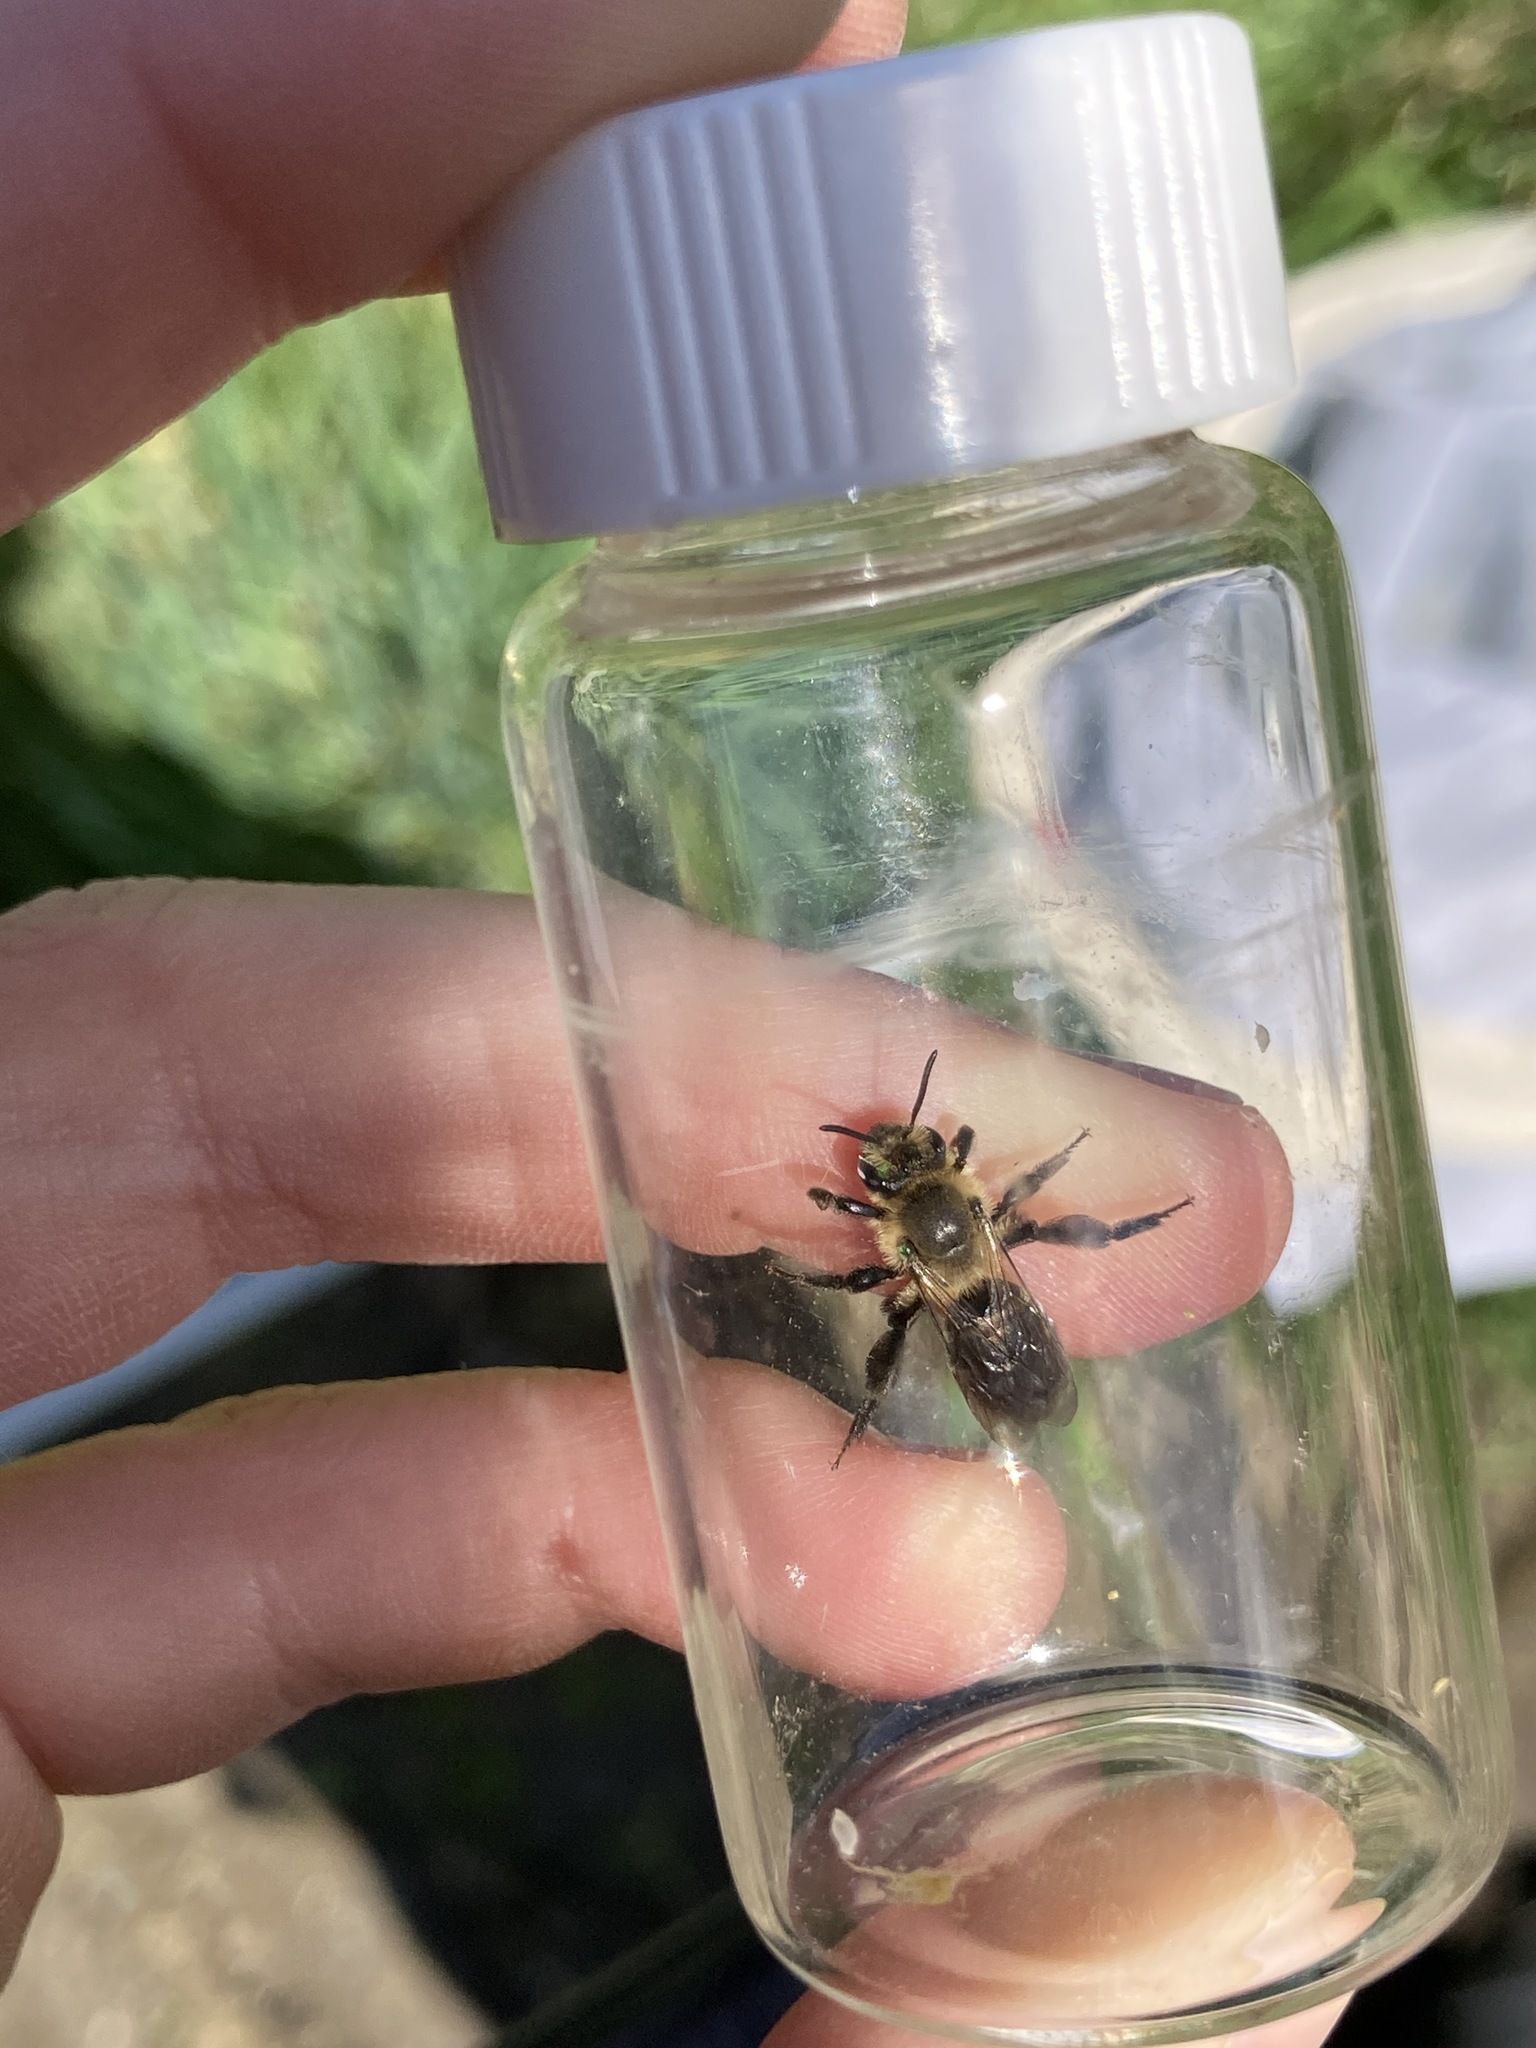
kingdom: Animalia
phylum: Arthropoda
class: Insecta
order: Hymenoptera
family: Andrenidae
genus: Andrena
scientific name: Andrena vicina
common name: Neighborly mining bee
